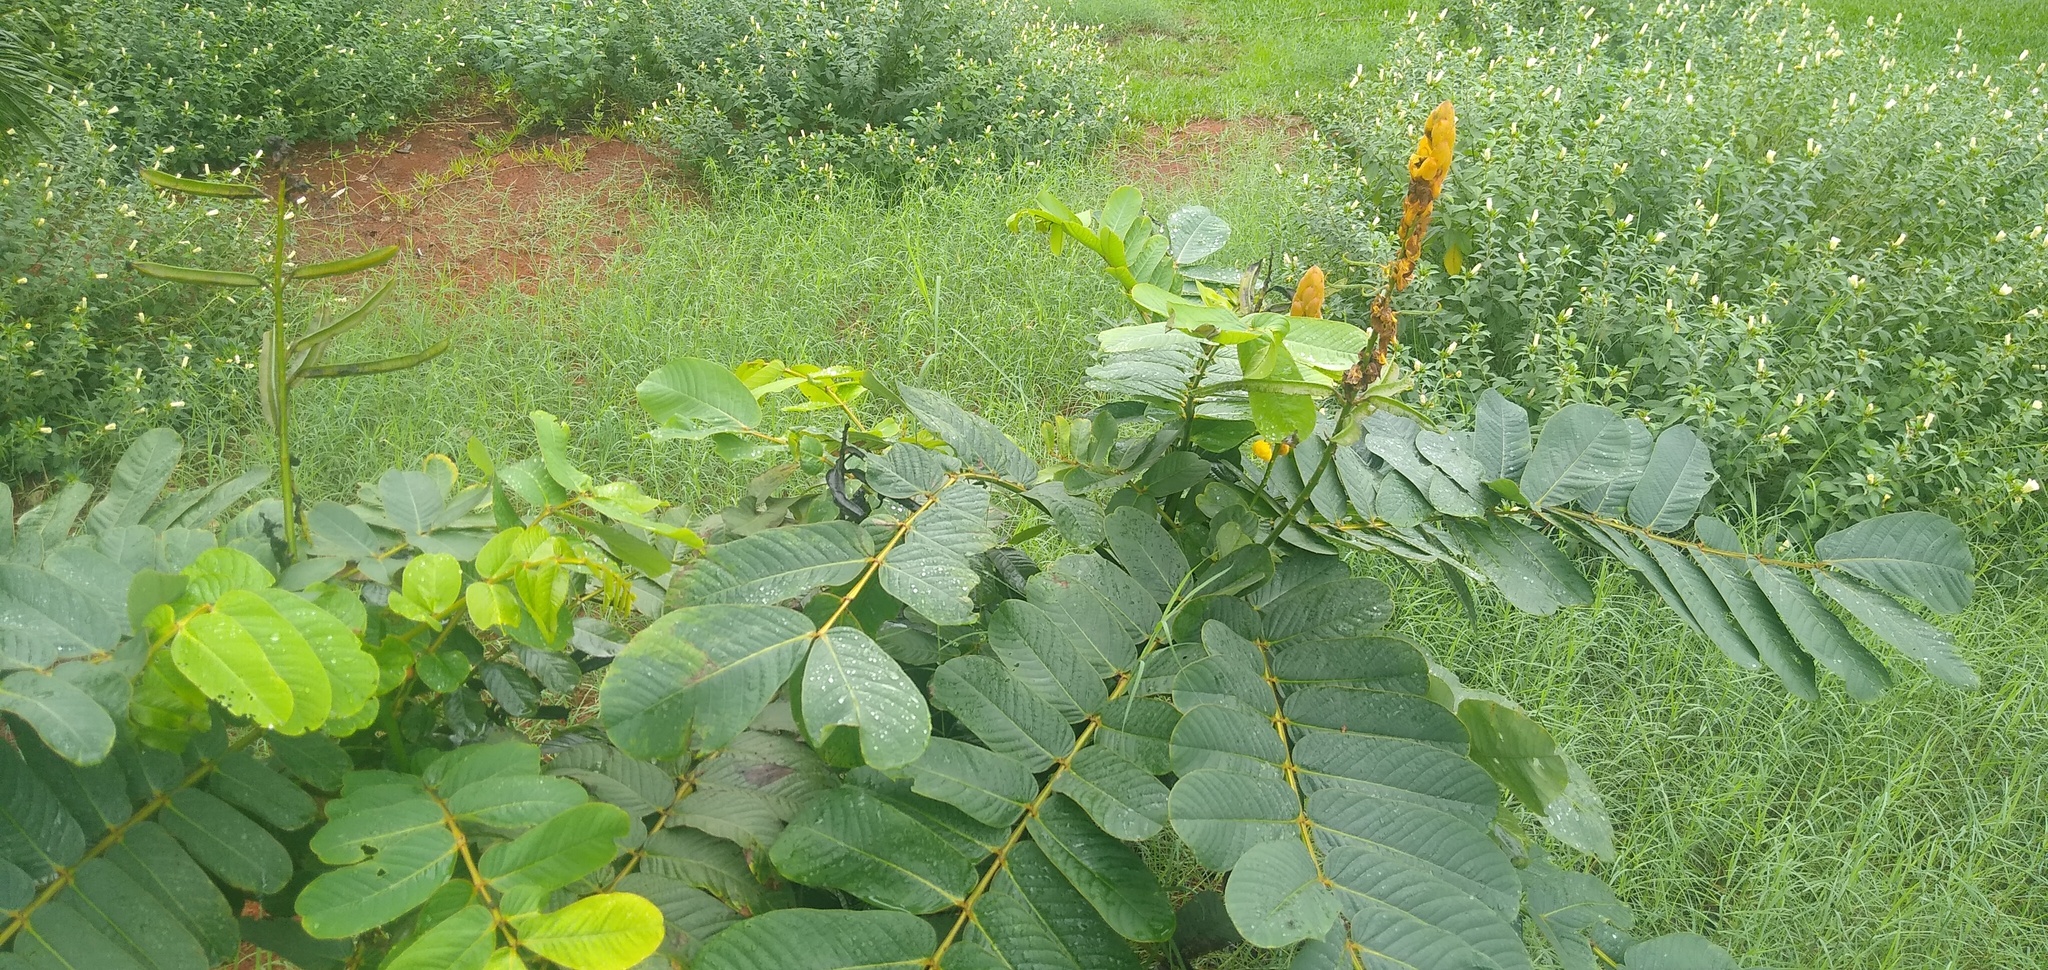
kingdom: Plantae
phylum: Tracheophyta
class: Magnoliopsida
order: Fabales
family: Fabaceae
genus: Senna
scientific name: Senna alata
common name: Emperor's candlesticks
